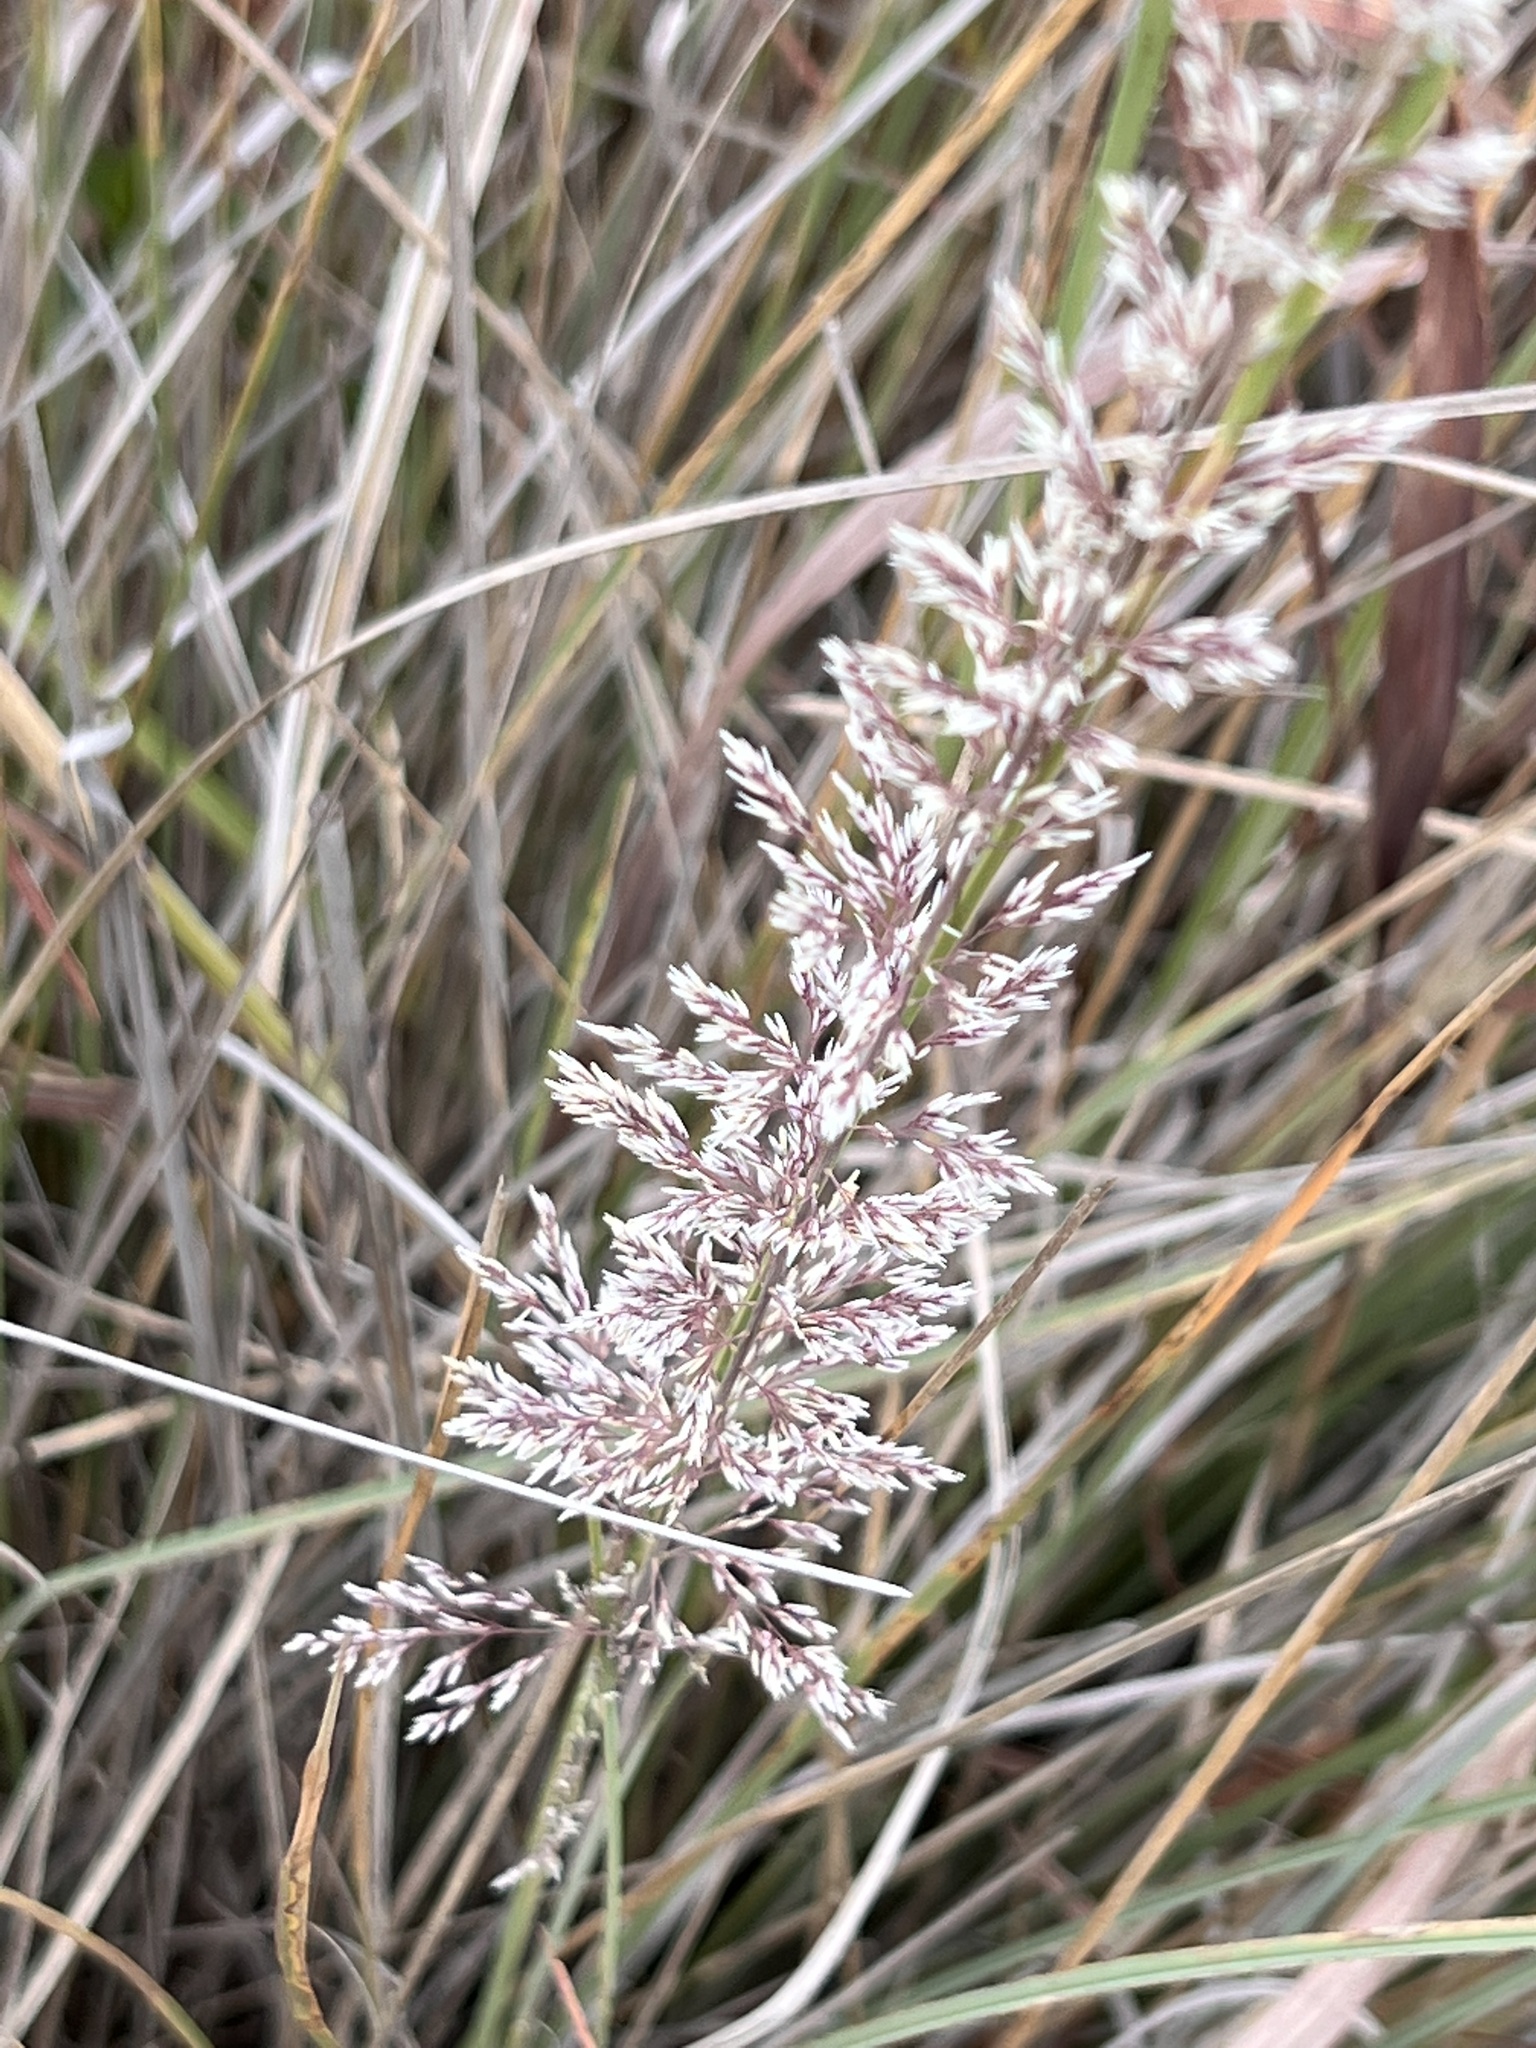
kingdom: Plantae
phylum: Tracheophyta
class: Liliopsida
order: Poales
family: Poaceae
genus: Muhlenbergia
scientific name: Muhlenbergia lindheimeri
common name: Lindheimer's muhly
